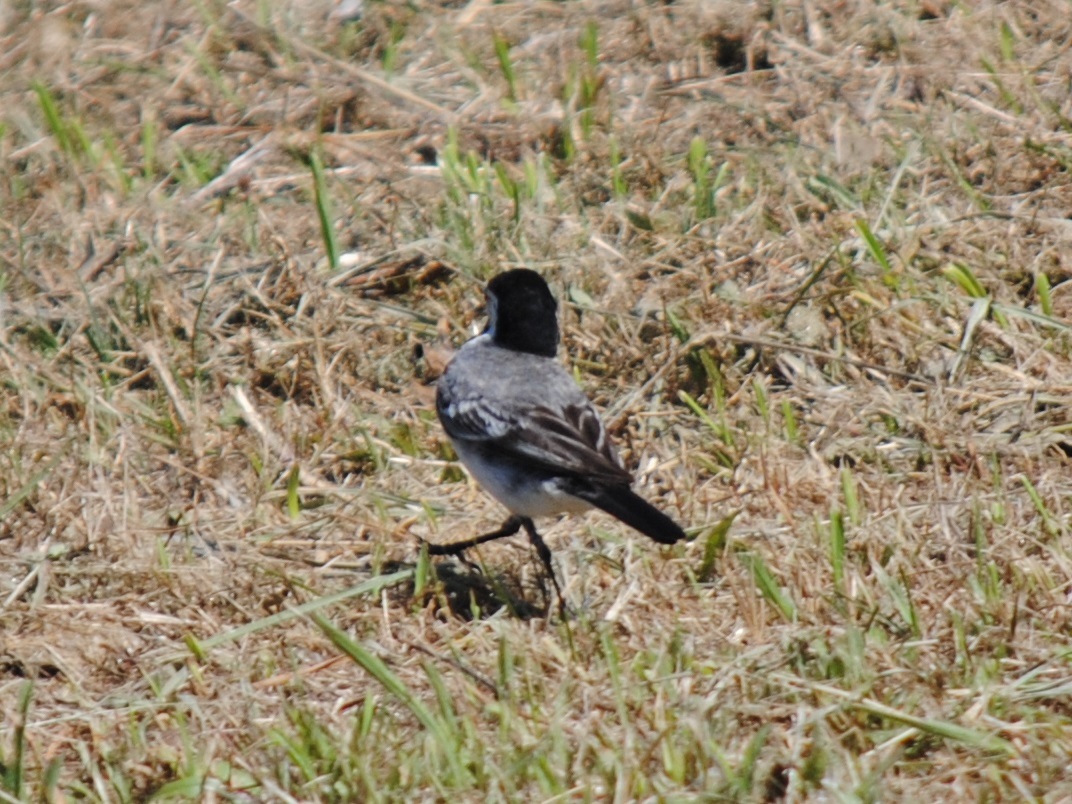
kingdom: Animalia
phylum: Chordata
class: Aves
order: Passeriformes
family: Motacillidae
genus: Motacilla
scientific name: Motacilla alba
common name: White wagtail
